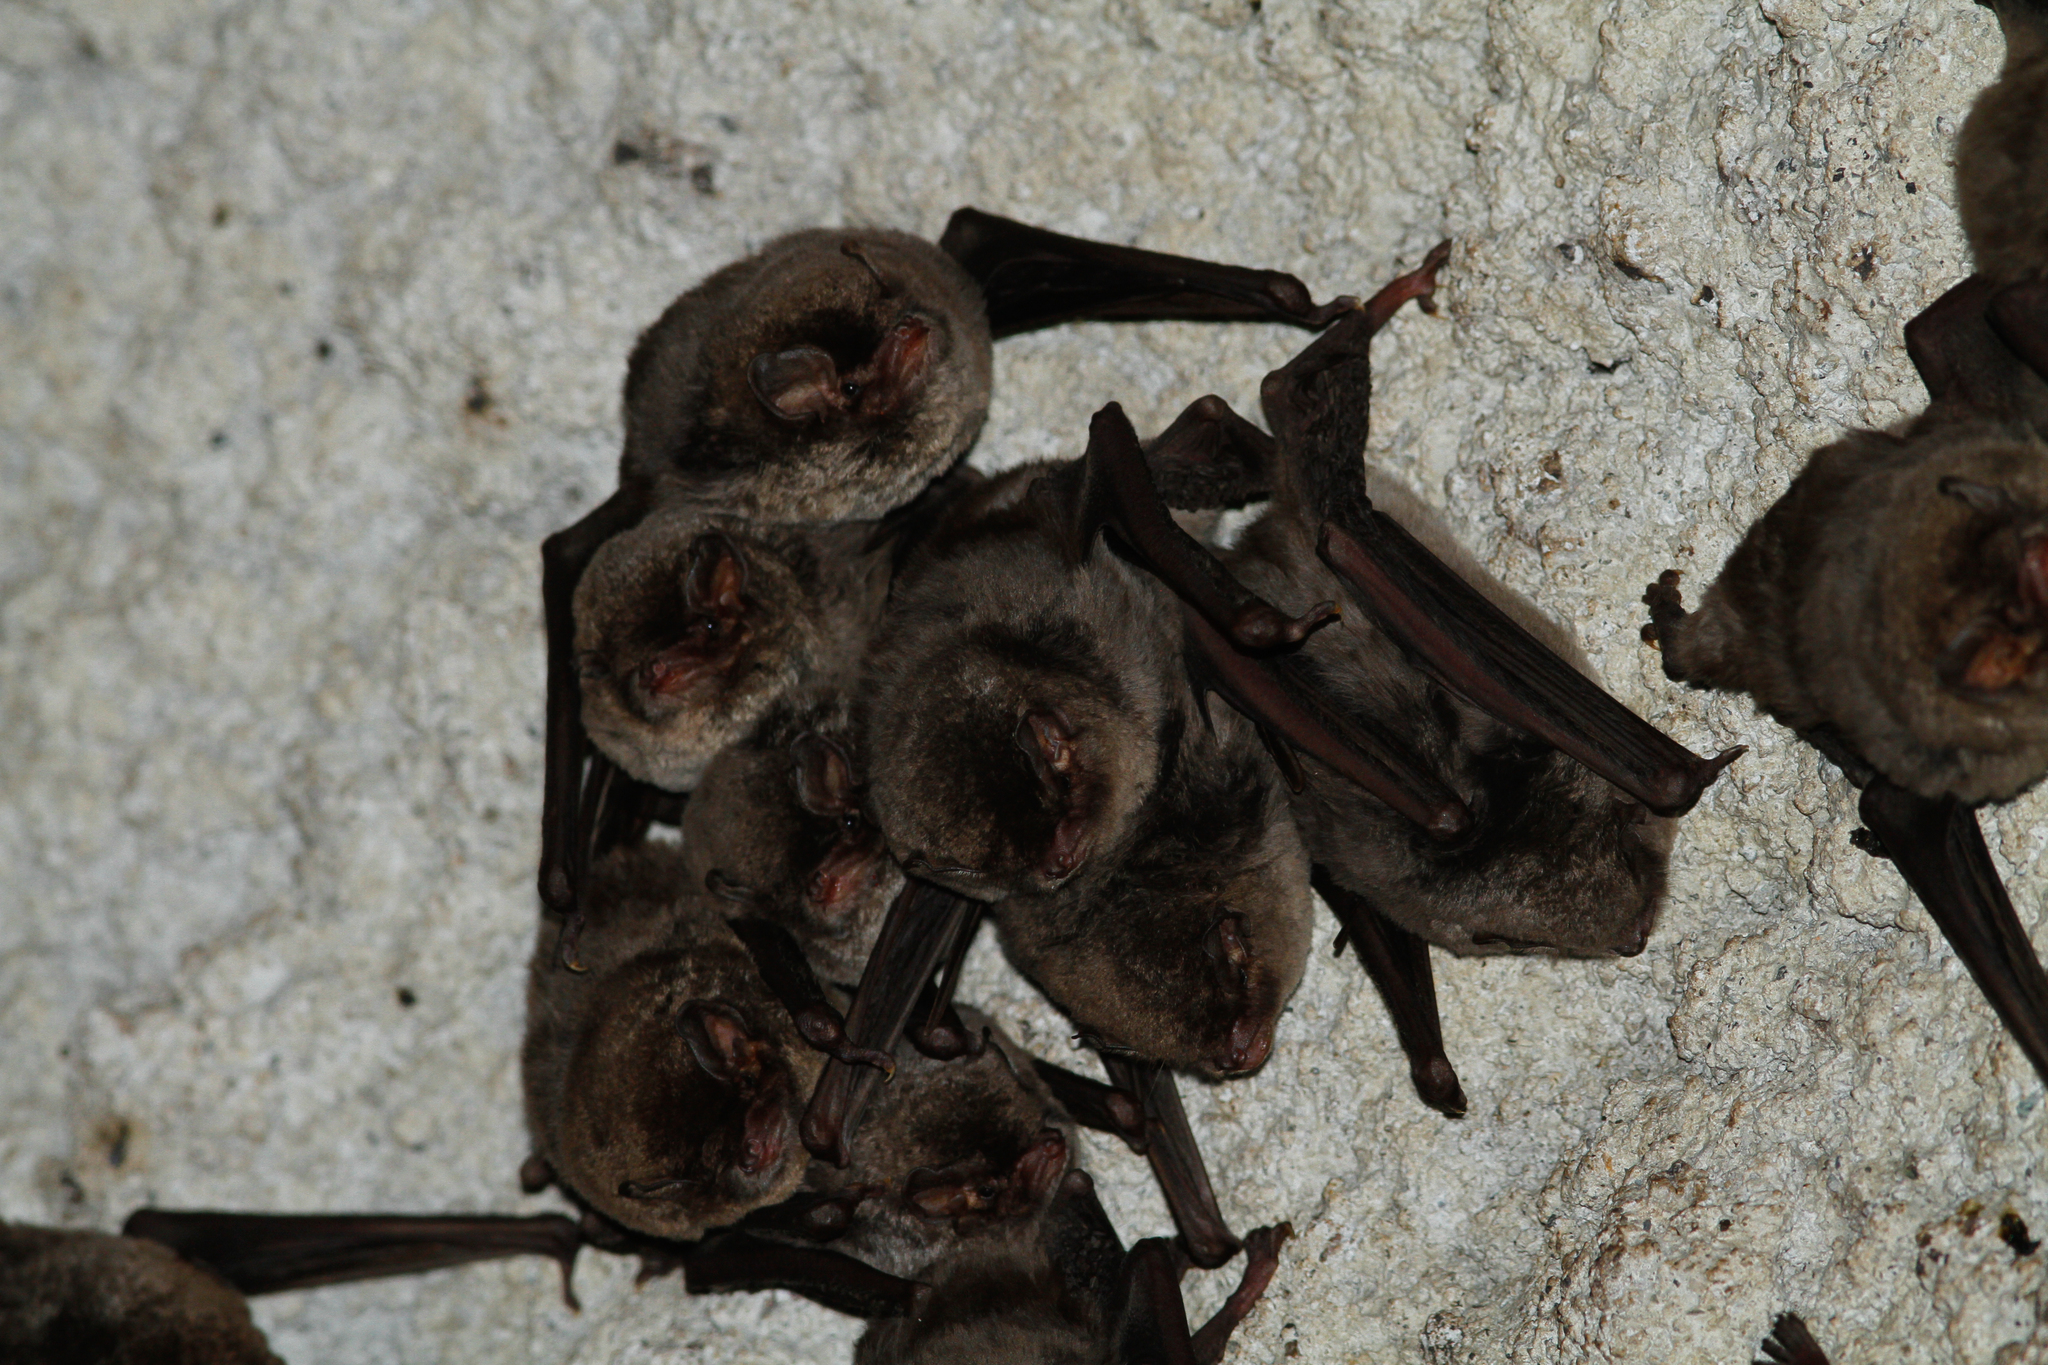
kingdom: Animalia
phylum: Chordata
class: Mammalia
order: Chiroptera
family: Miniopteridae
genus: Miniopterus
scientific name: Miniopterus schreibersii
